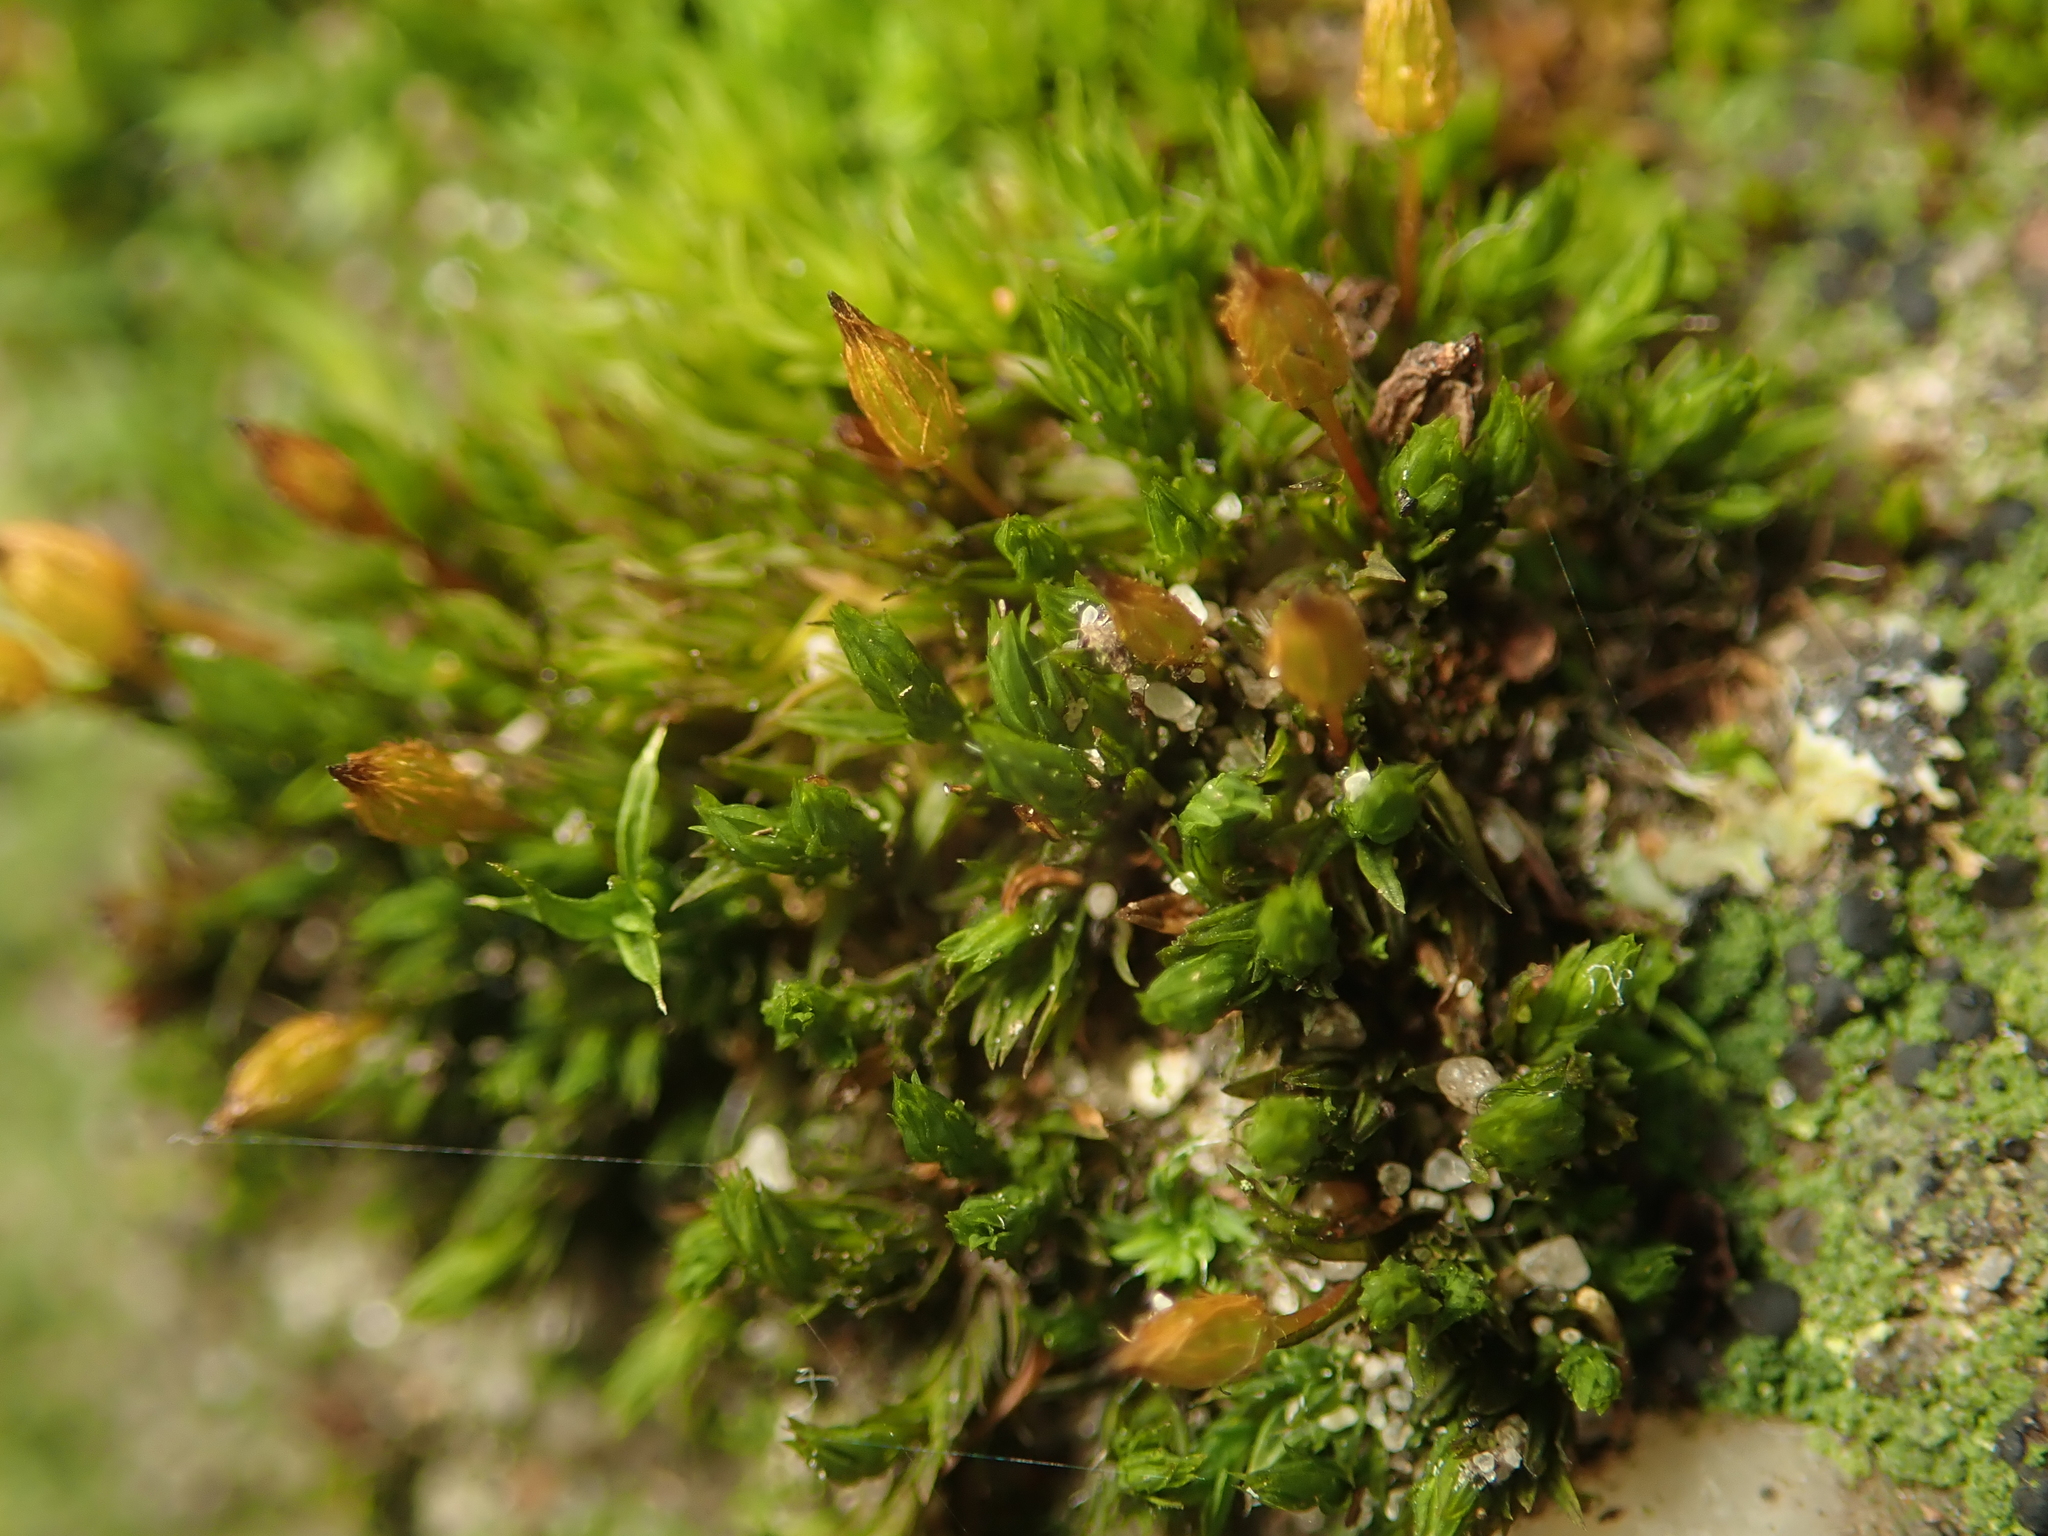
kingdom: Plantae
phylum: Bryophyta
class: Bryopsida
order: Orthotrichales
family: Orthotrichaceae
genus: Orthotrichum
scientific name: Orthotrichum anomalum
